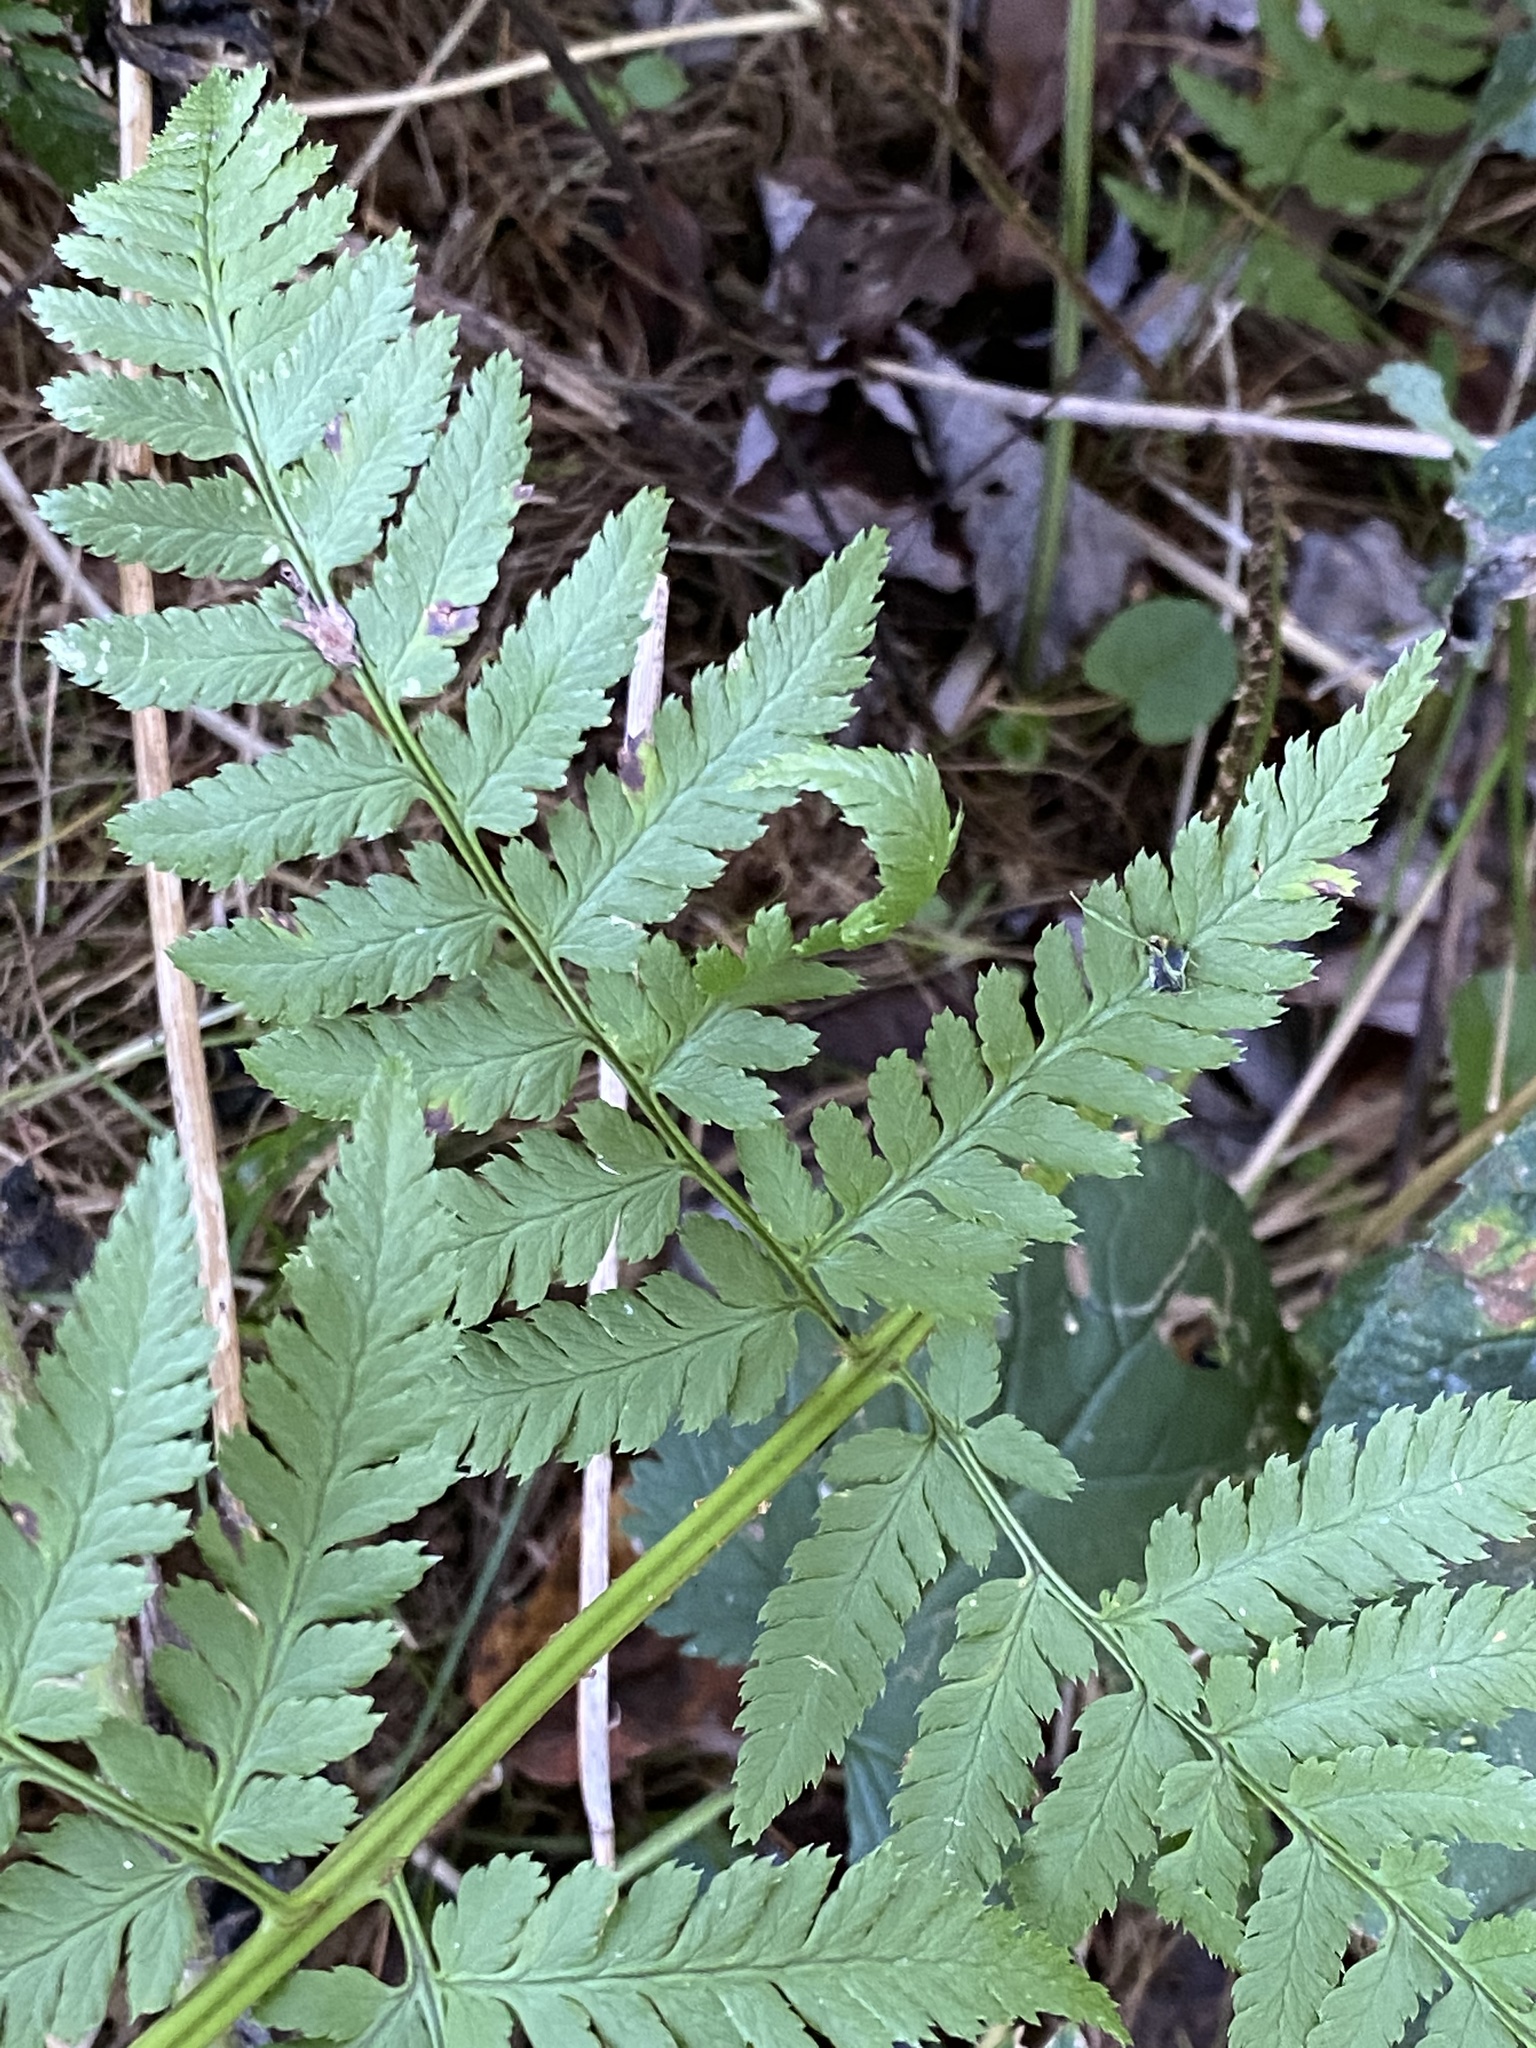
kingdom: Plantae
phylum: Tracheophyta
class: Polypodiopsida
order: Polypodiales
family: Dryopteridaceae
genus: Dryopteris
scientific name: Dryopteris carthusiana
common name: Narrow buckler-fern
